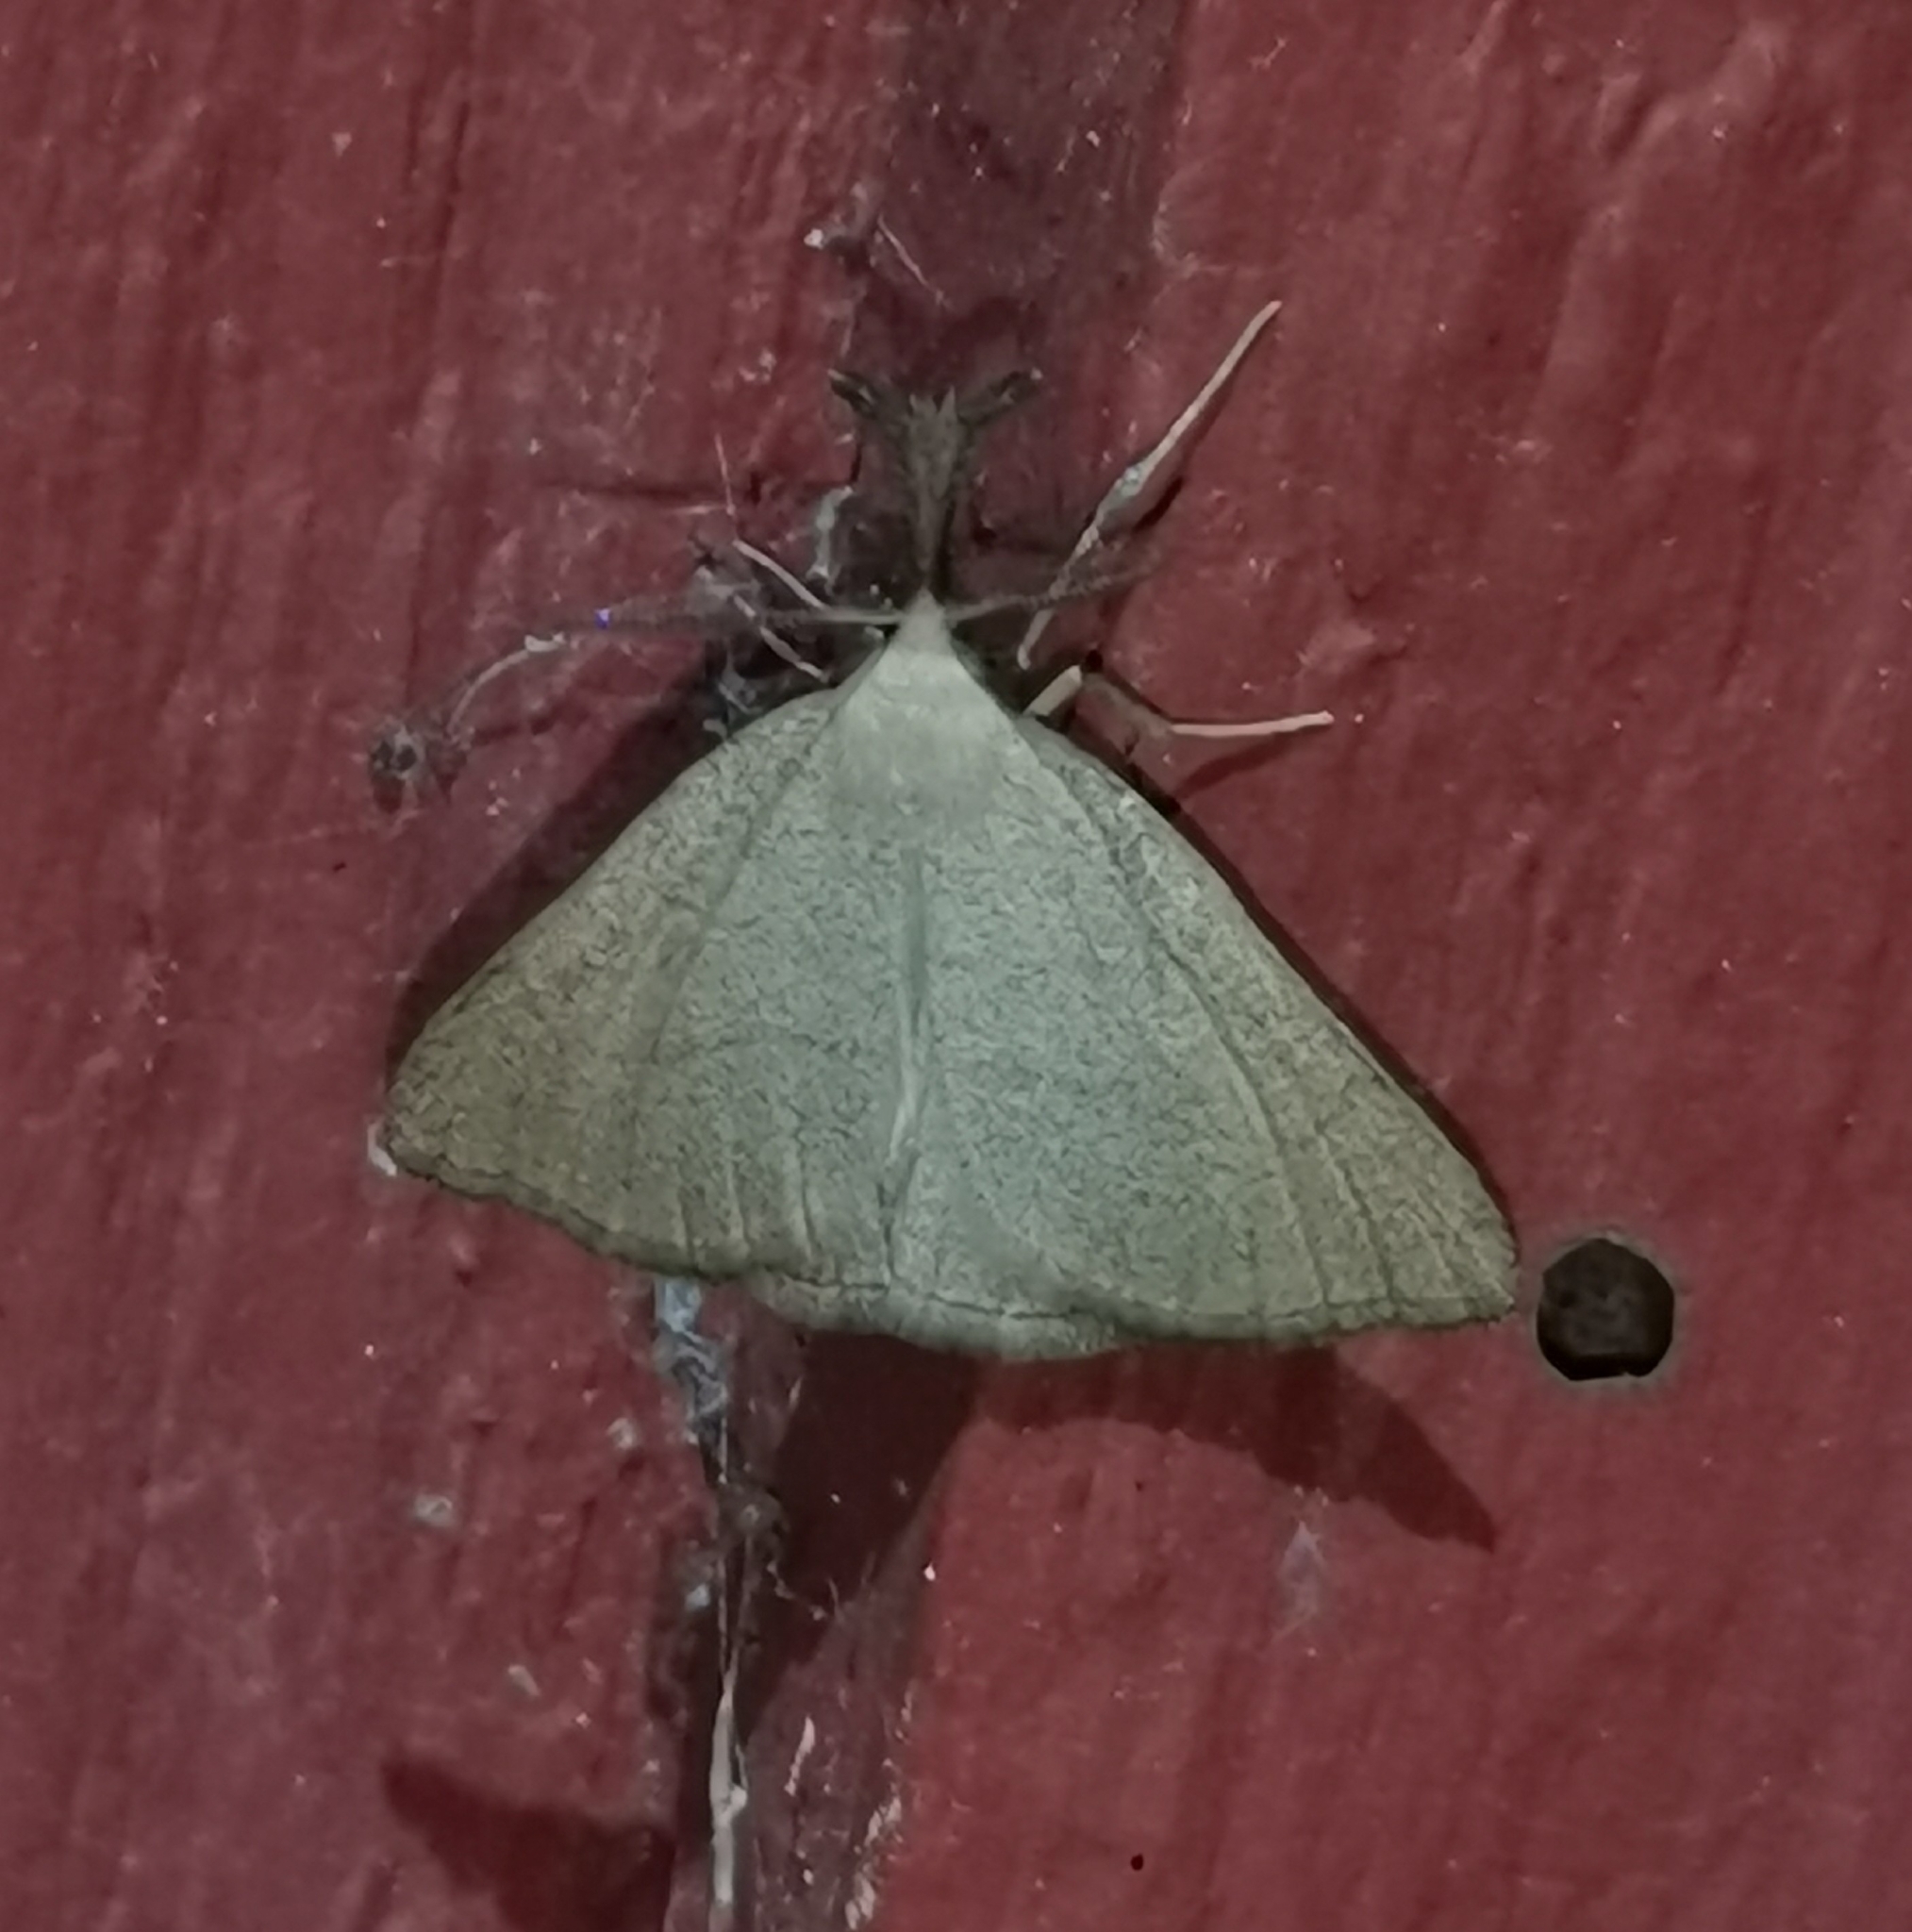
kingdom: Animalia
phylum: Arthropoda
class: Insecta
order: Lepidoptera
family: Erebidae
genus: Polypogon
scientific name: Polypogon tentacularia
